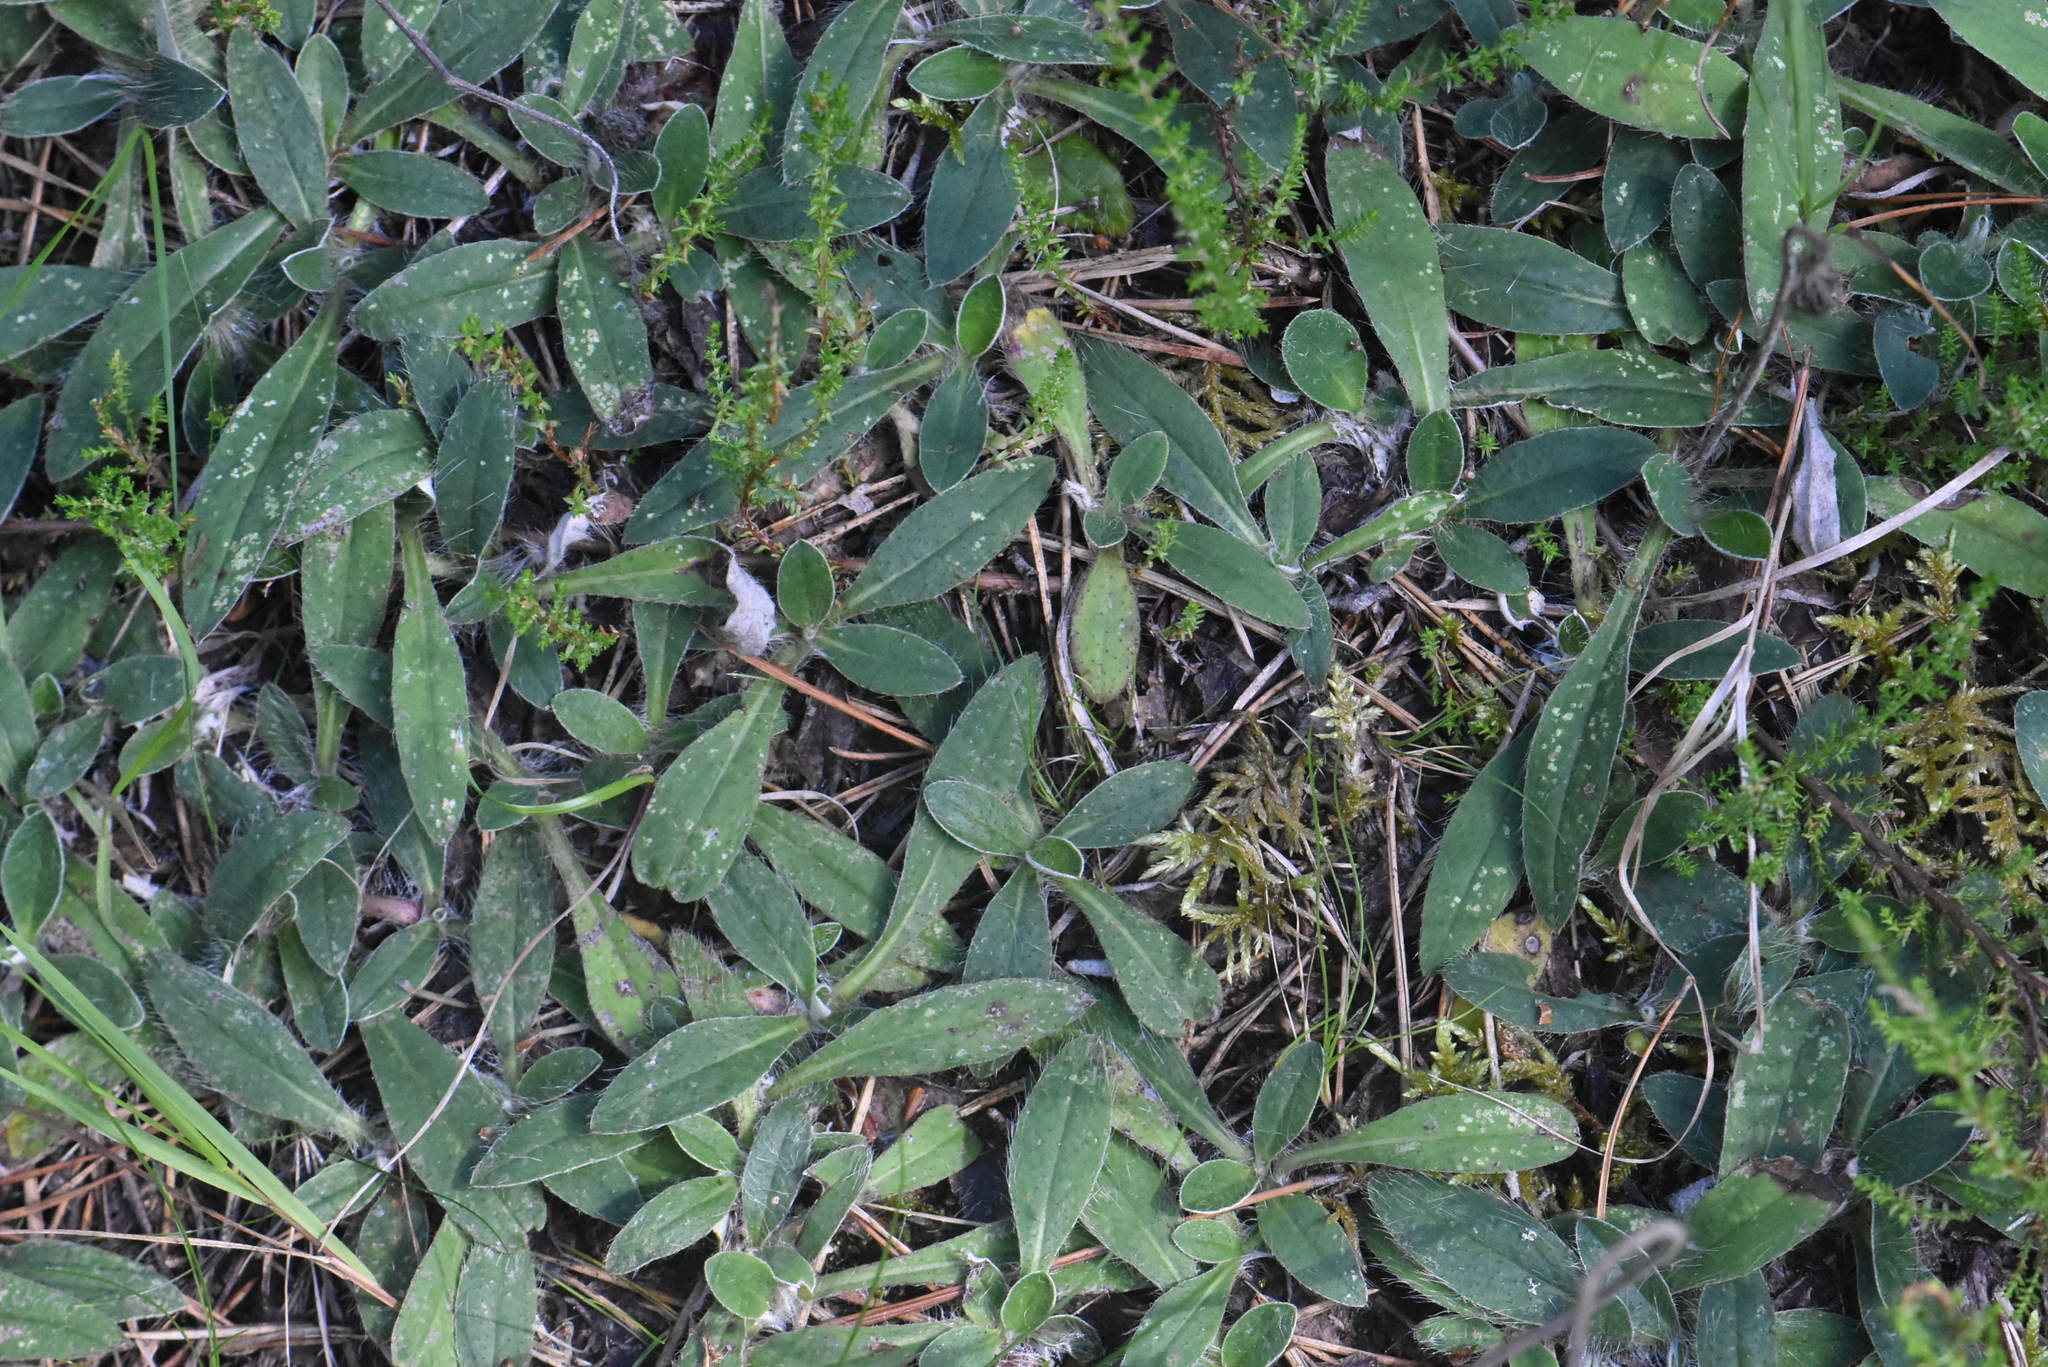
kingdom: Plantae
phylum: Tracheophyta
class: Magnoliopsida
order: Asterales
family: Asteraceae
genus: Pilosella
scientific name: Pilosella officinarum
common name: Mouse-ear hawkweed
